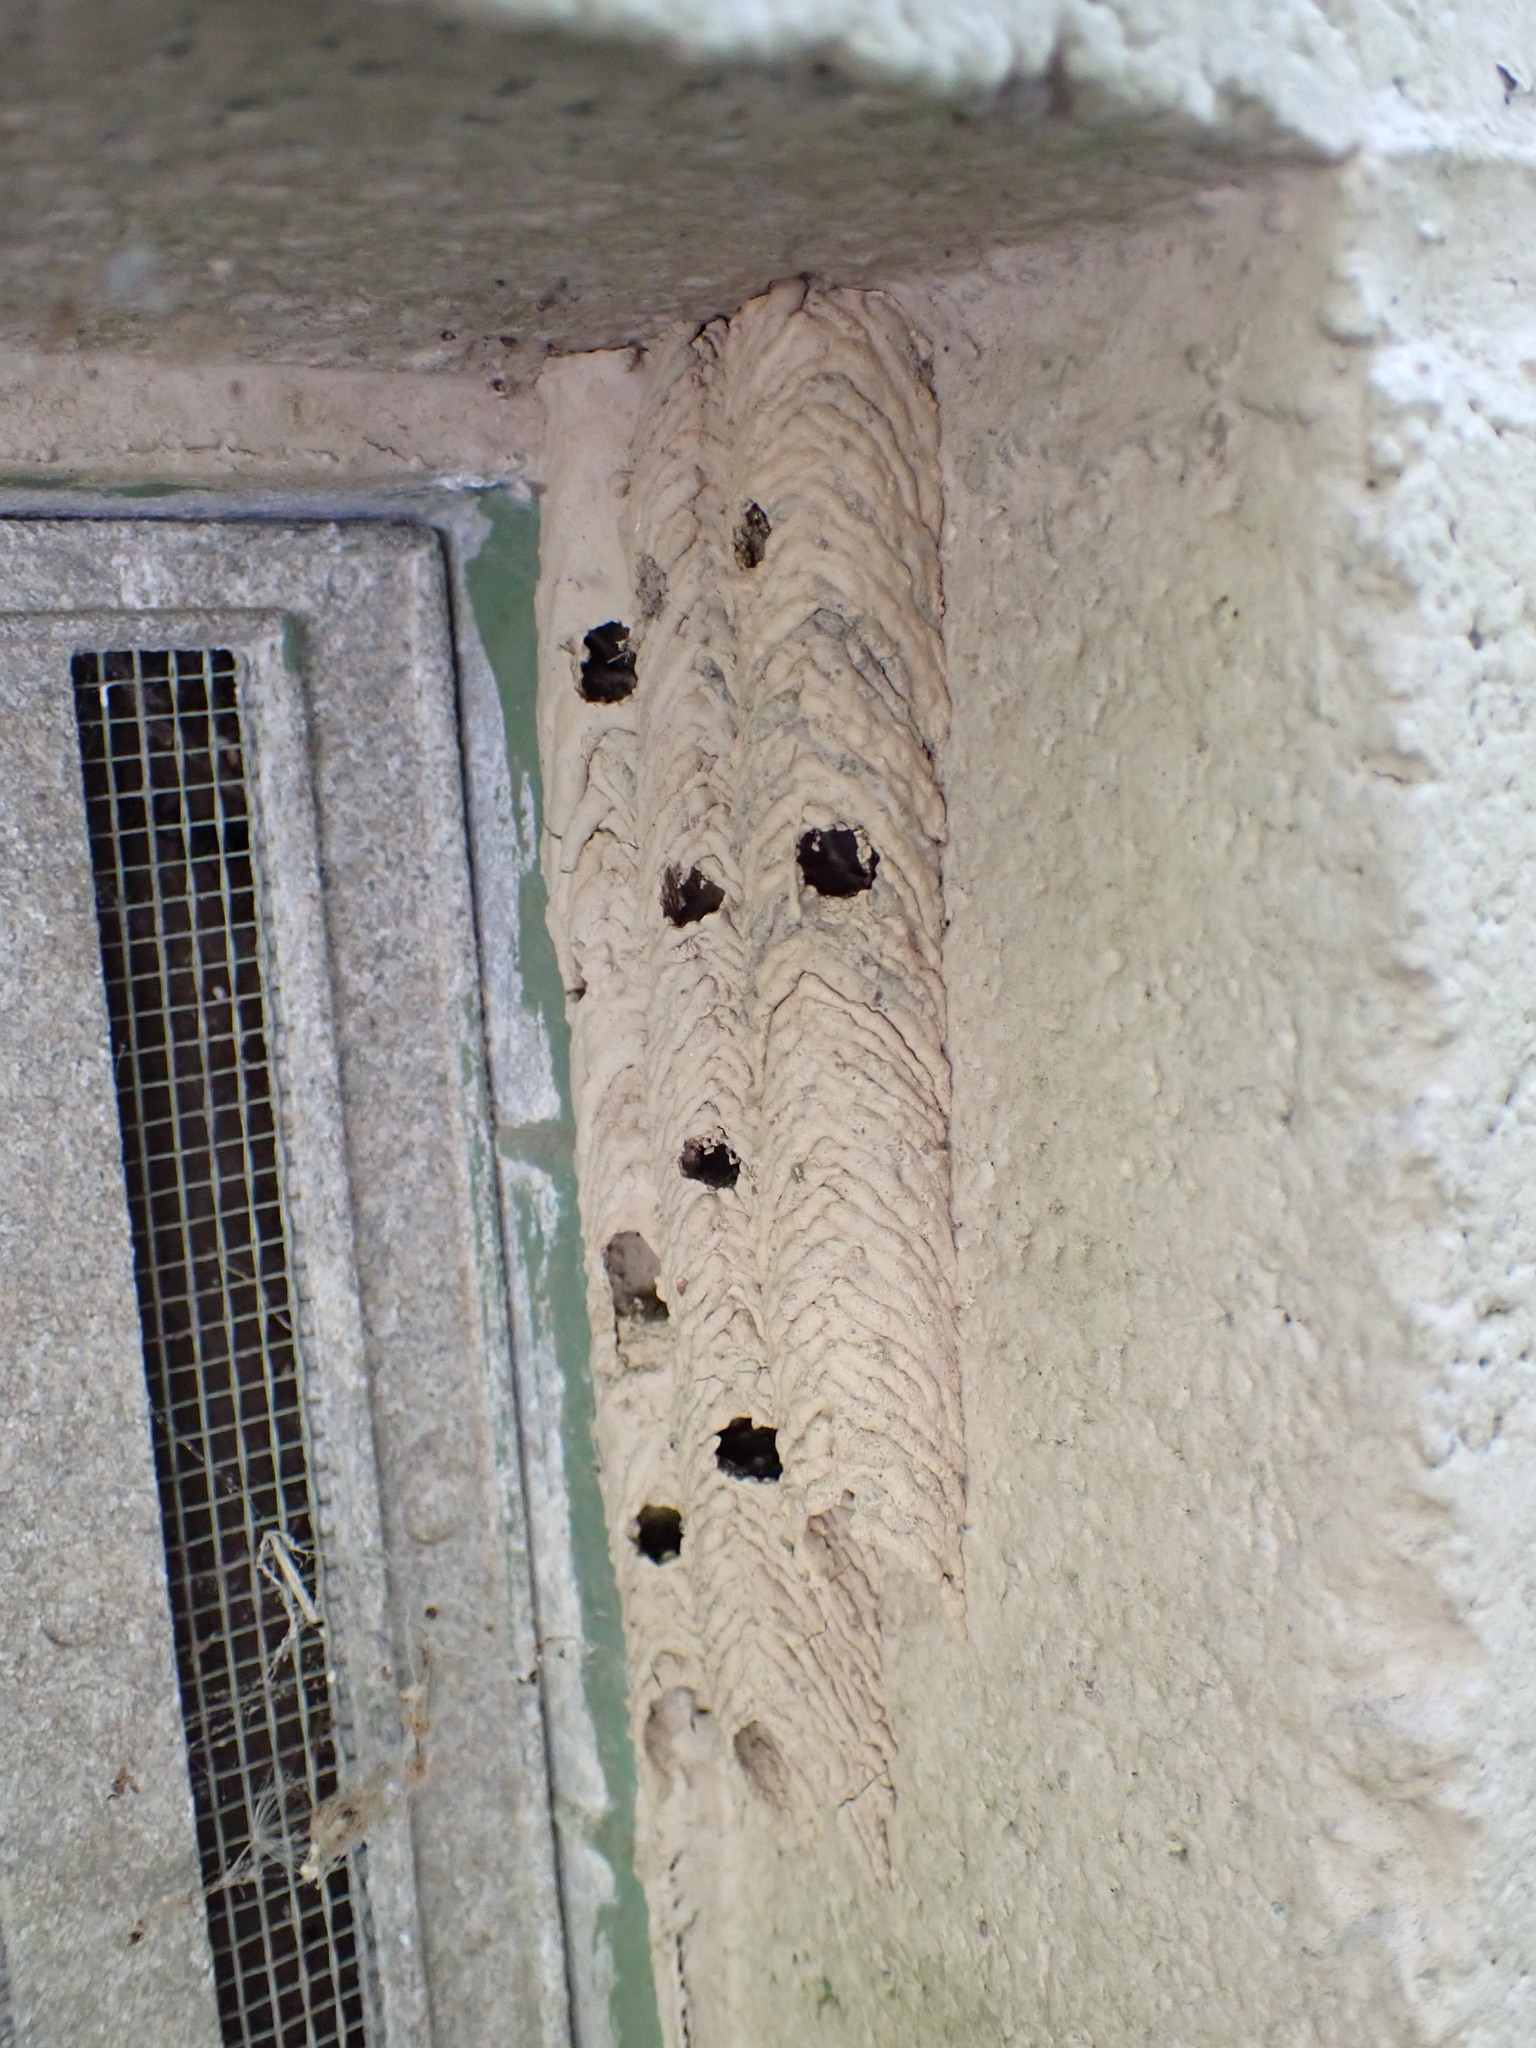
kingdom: Animalia
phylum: Arthropoda
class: Insecta
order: Hymenoptera
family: Crabronidae
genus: Trypoxylon
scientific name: Trypoxylon politum
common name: Organ-pipe mud-dauber wasp
